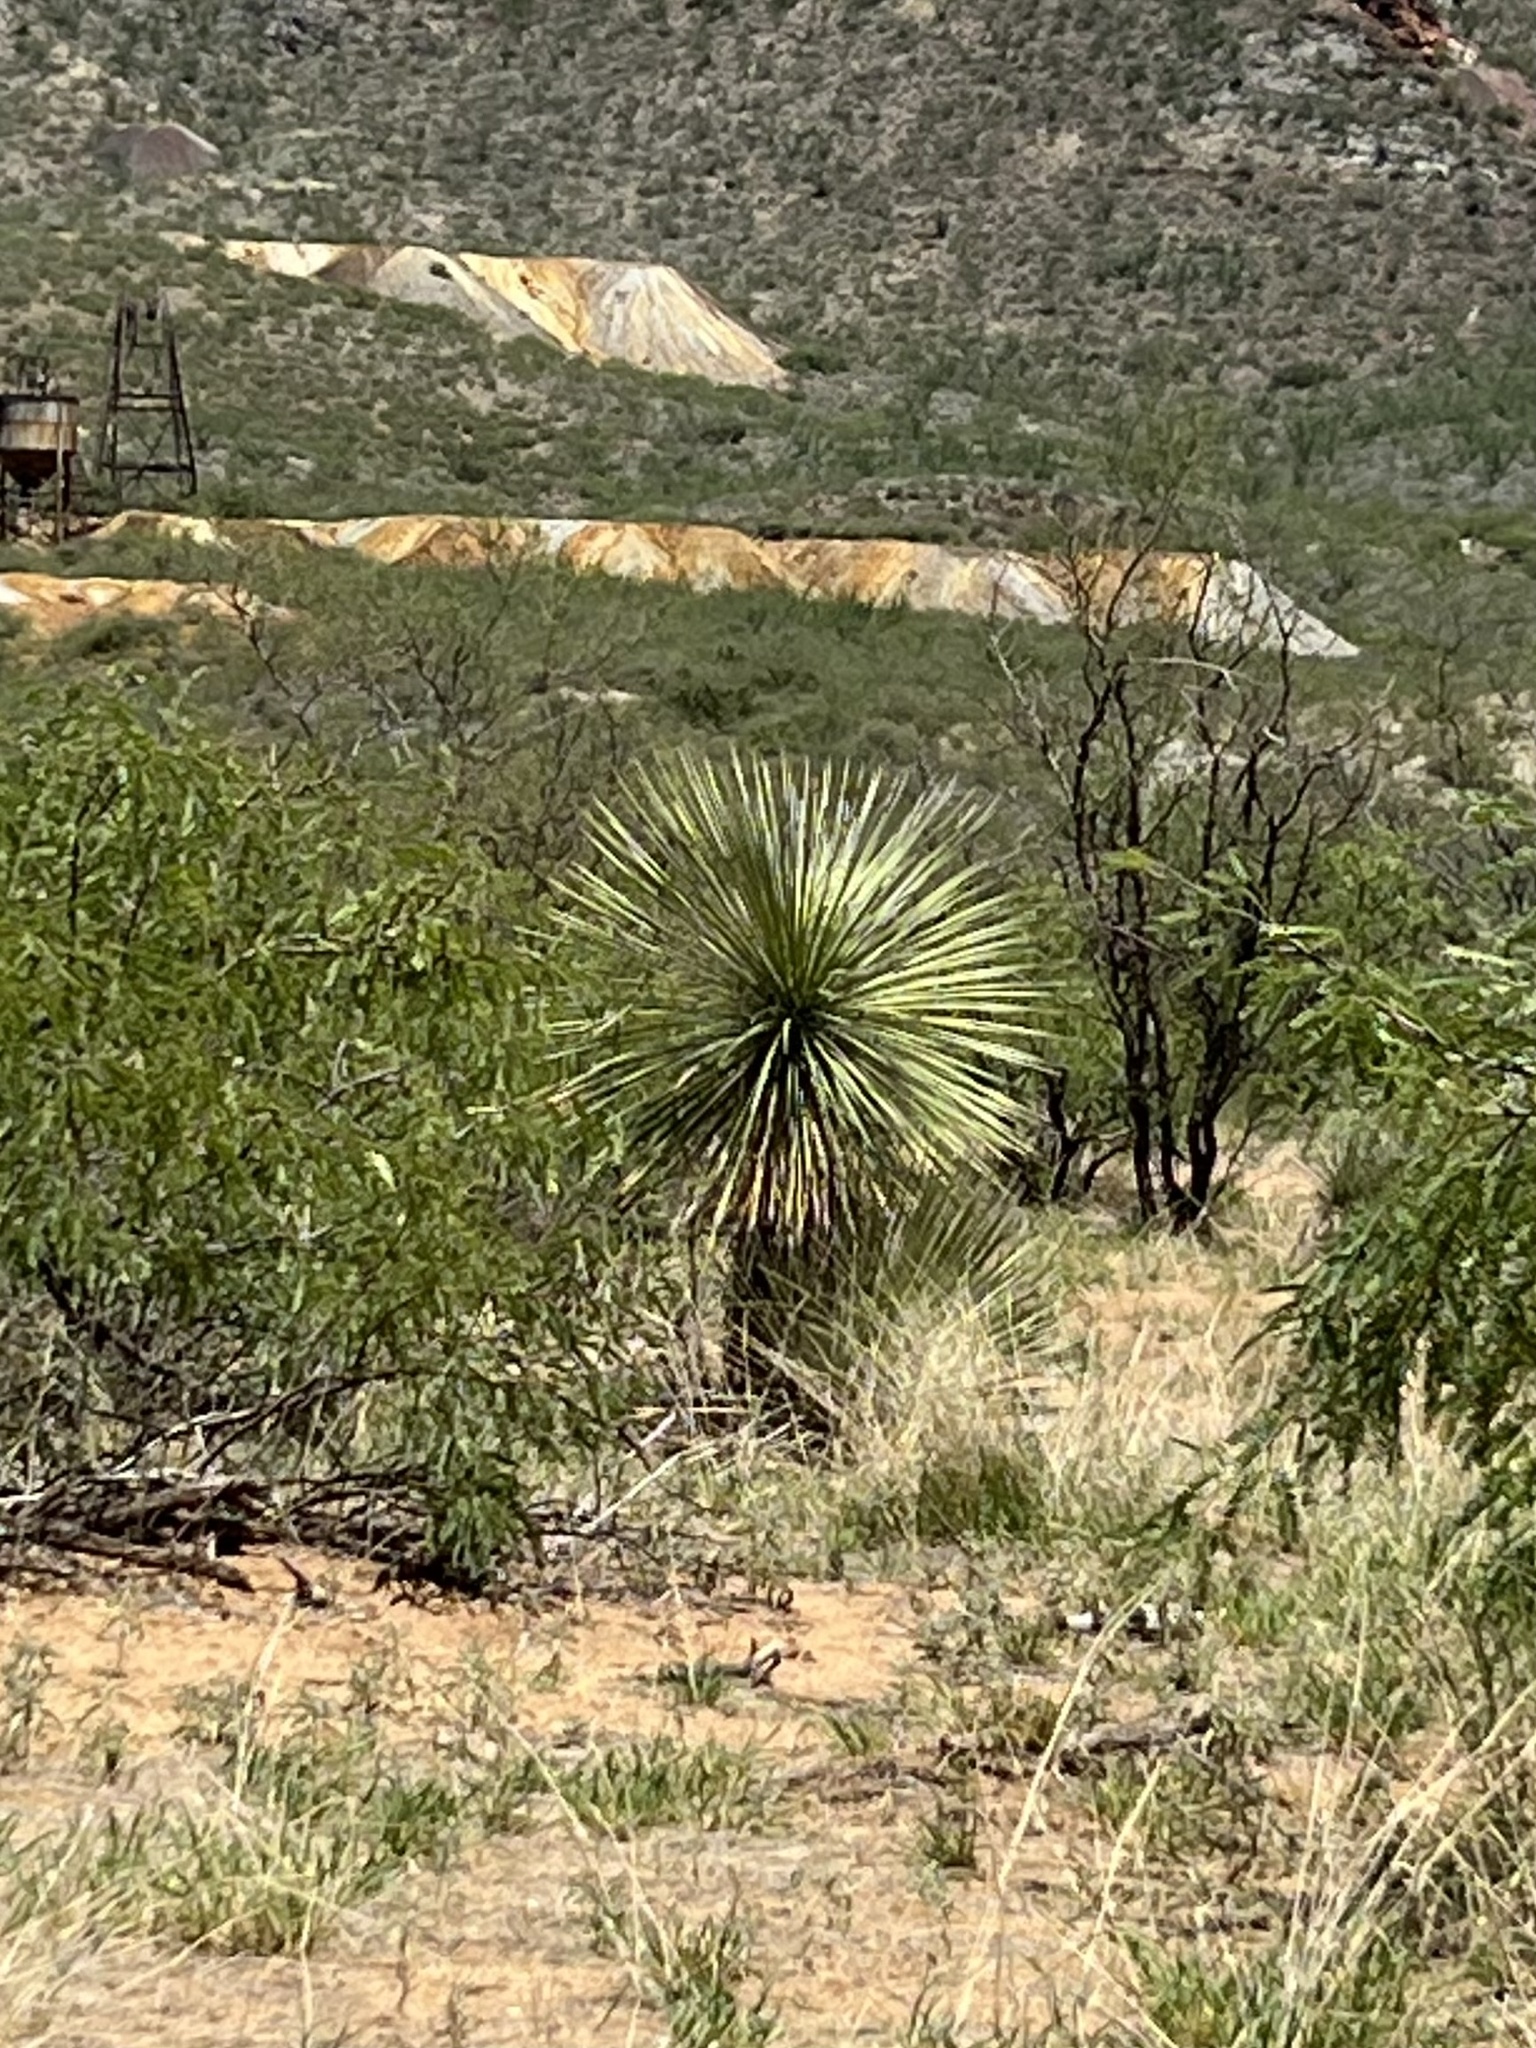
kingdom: Plantae
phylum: Tracheophyta
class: Liliopsida
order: Asparagales
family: Asparagaceae
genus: Yucca
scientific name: Yucca elata
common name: Palmella
